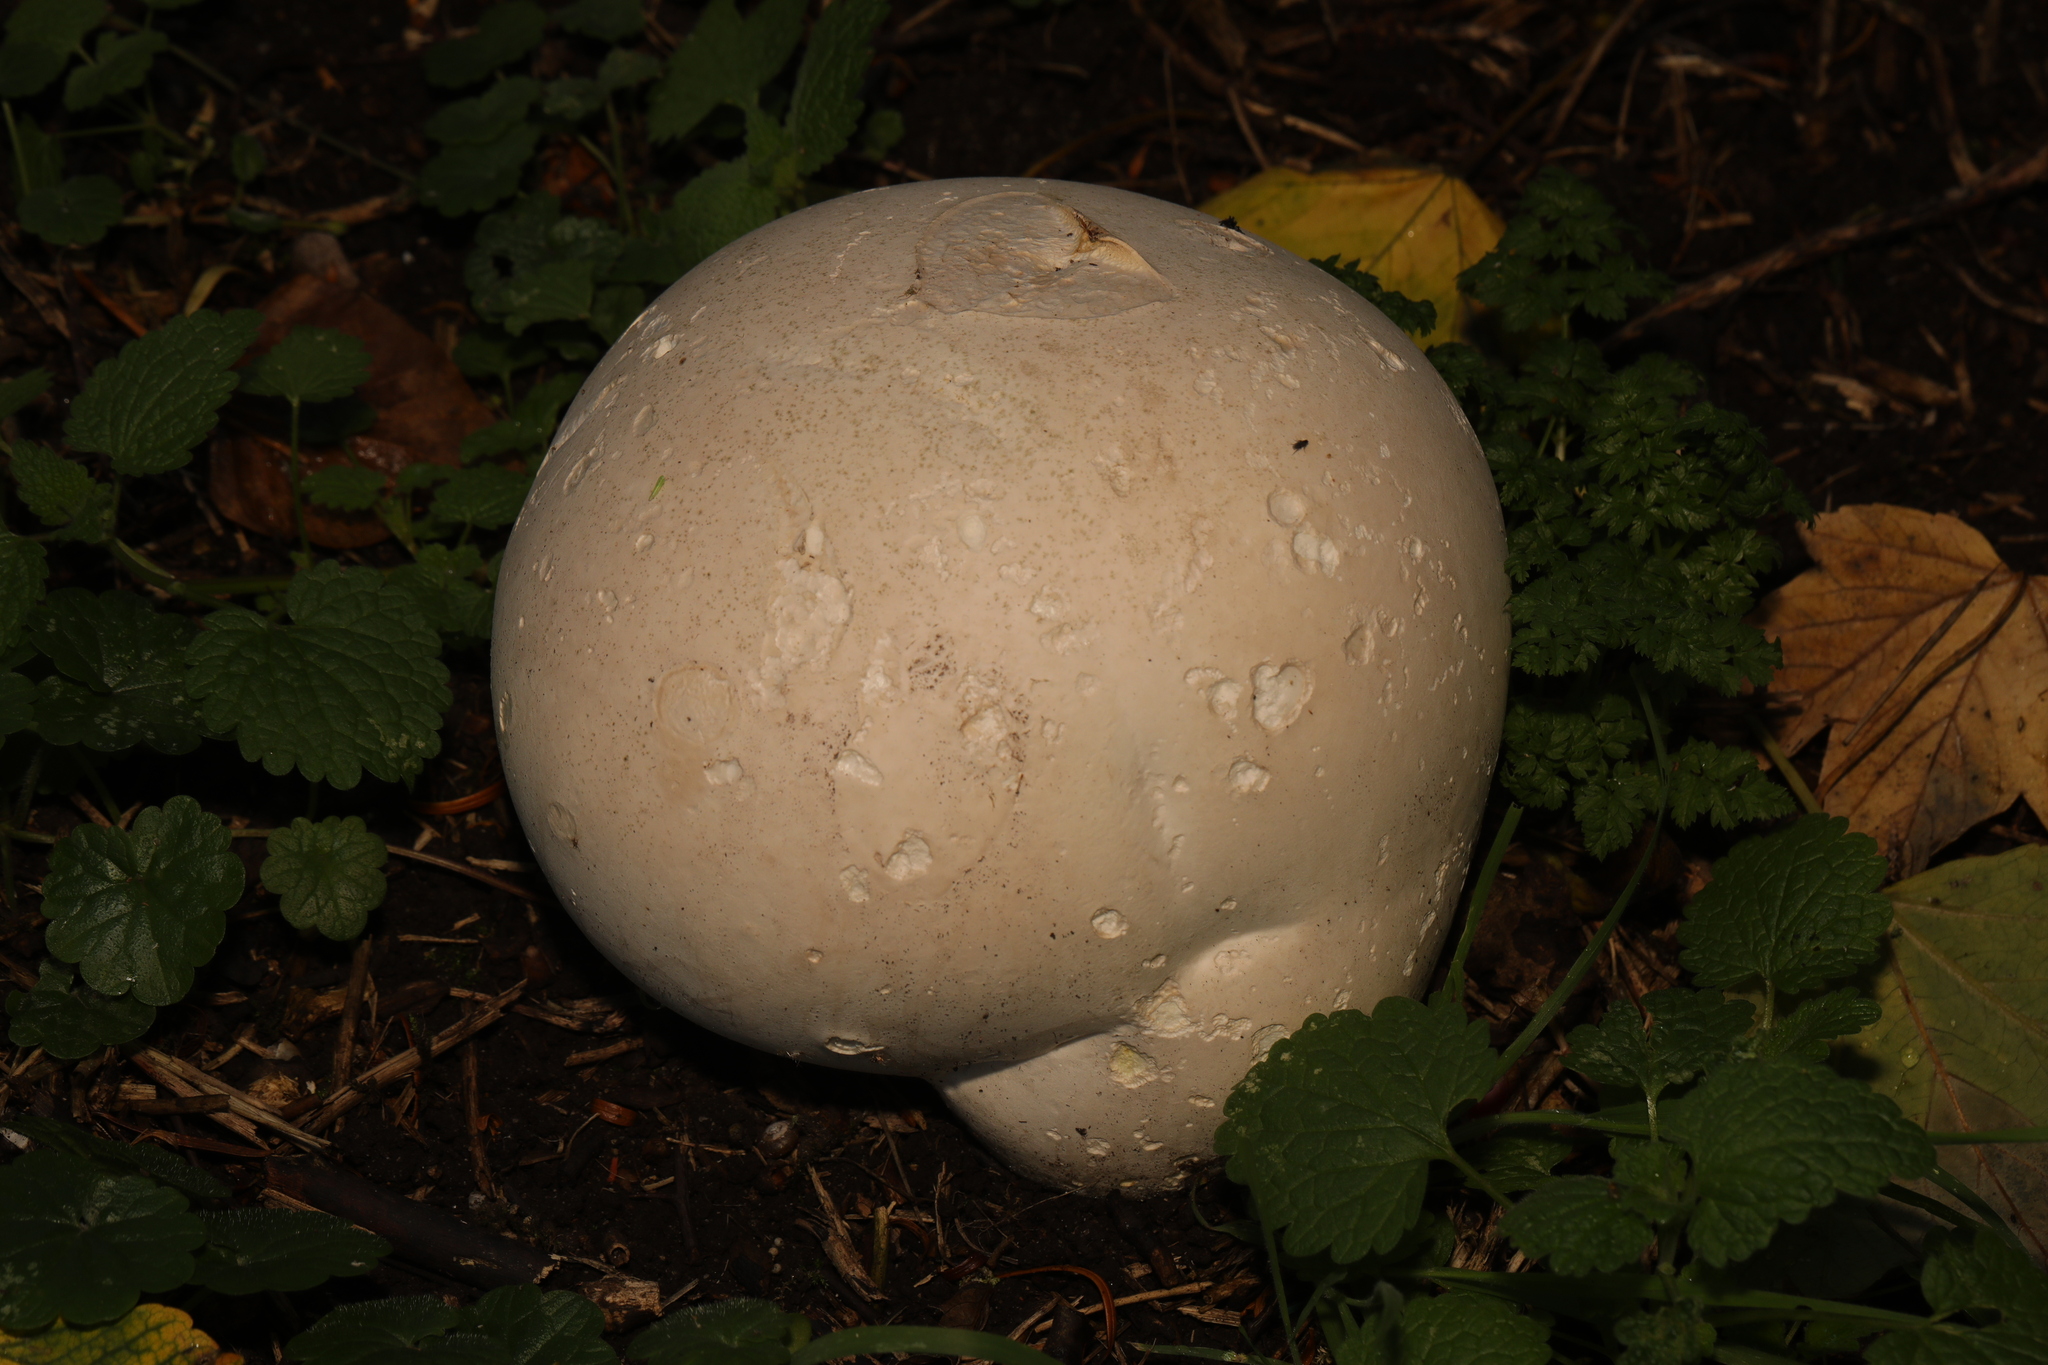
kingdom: Fungi
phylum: Basidiomycota
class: Agaricomycetes
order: Agaricales
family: Lycoperdaceae
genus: Calvatia
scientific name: Calvatia gigantea
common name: Giant puffball
